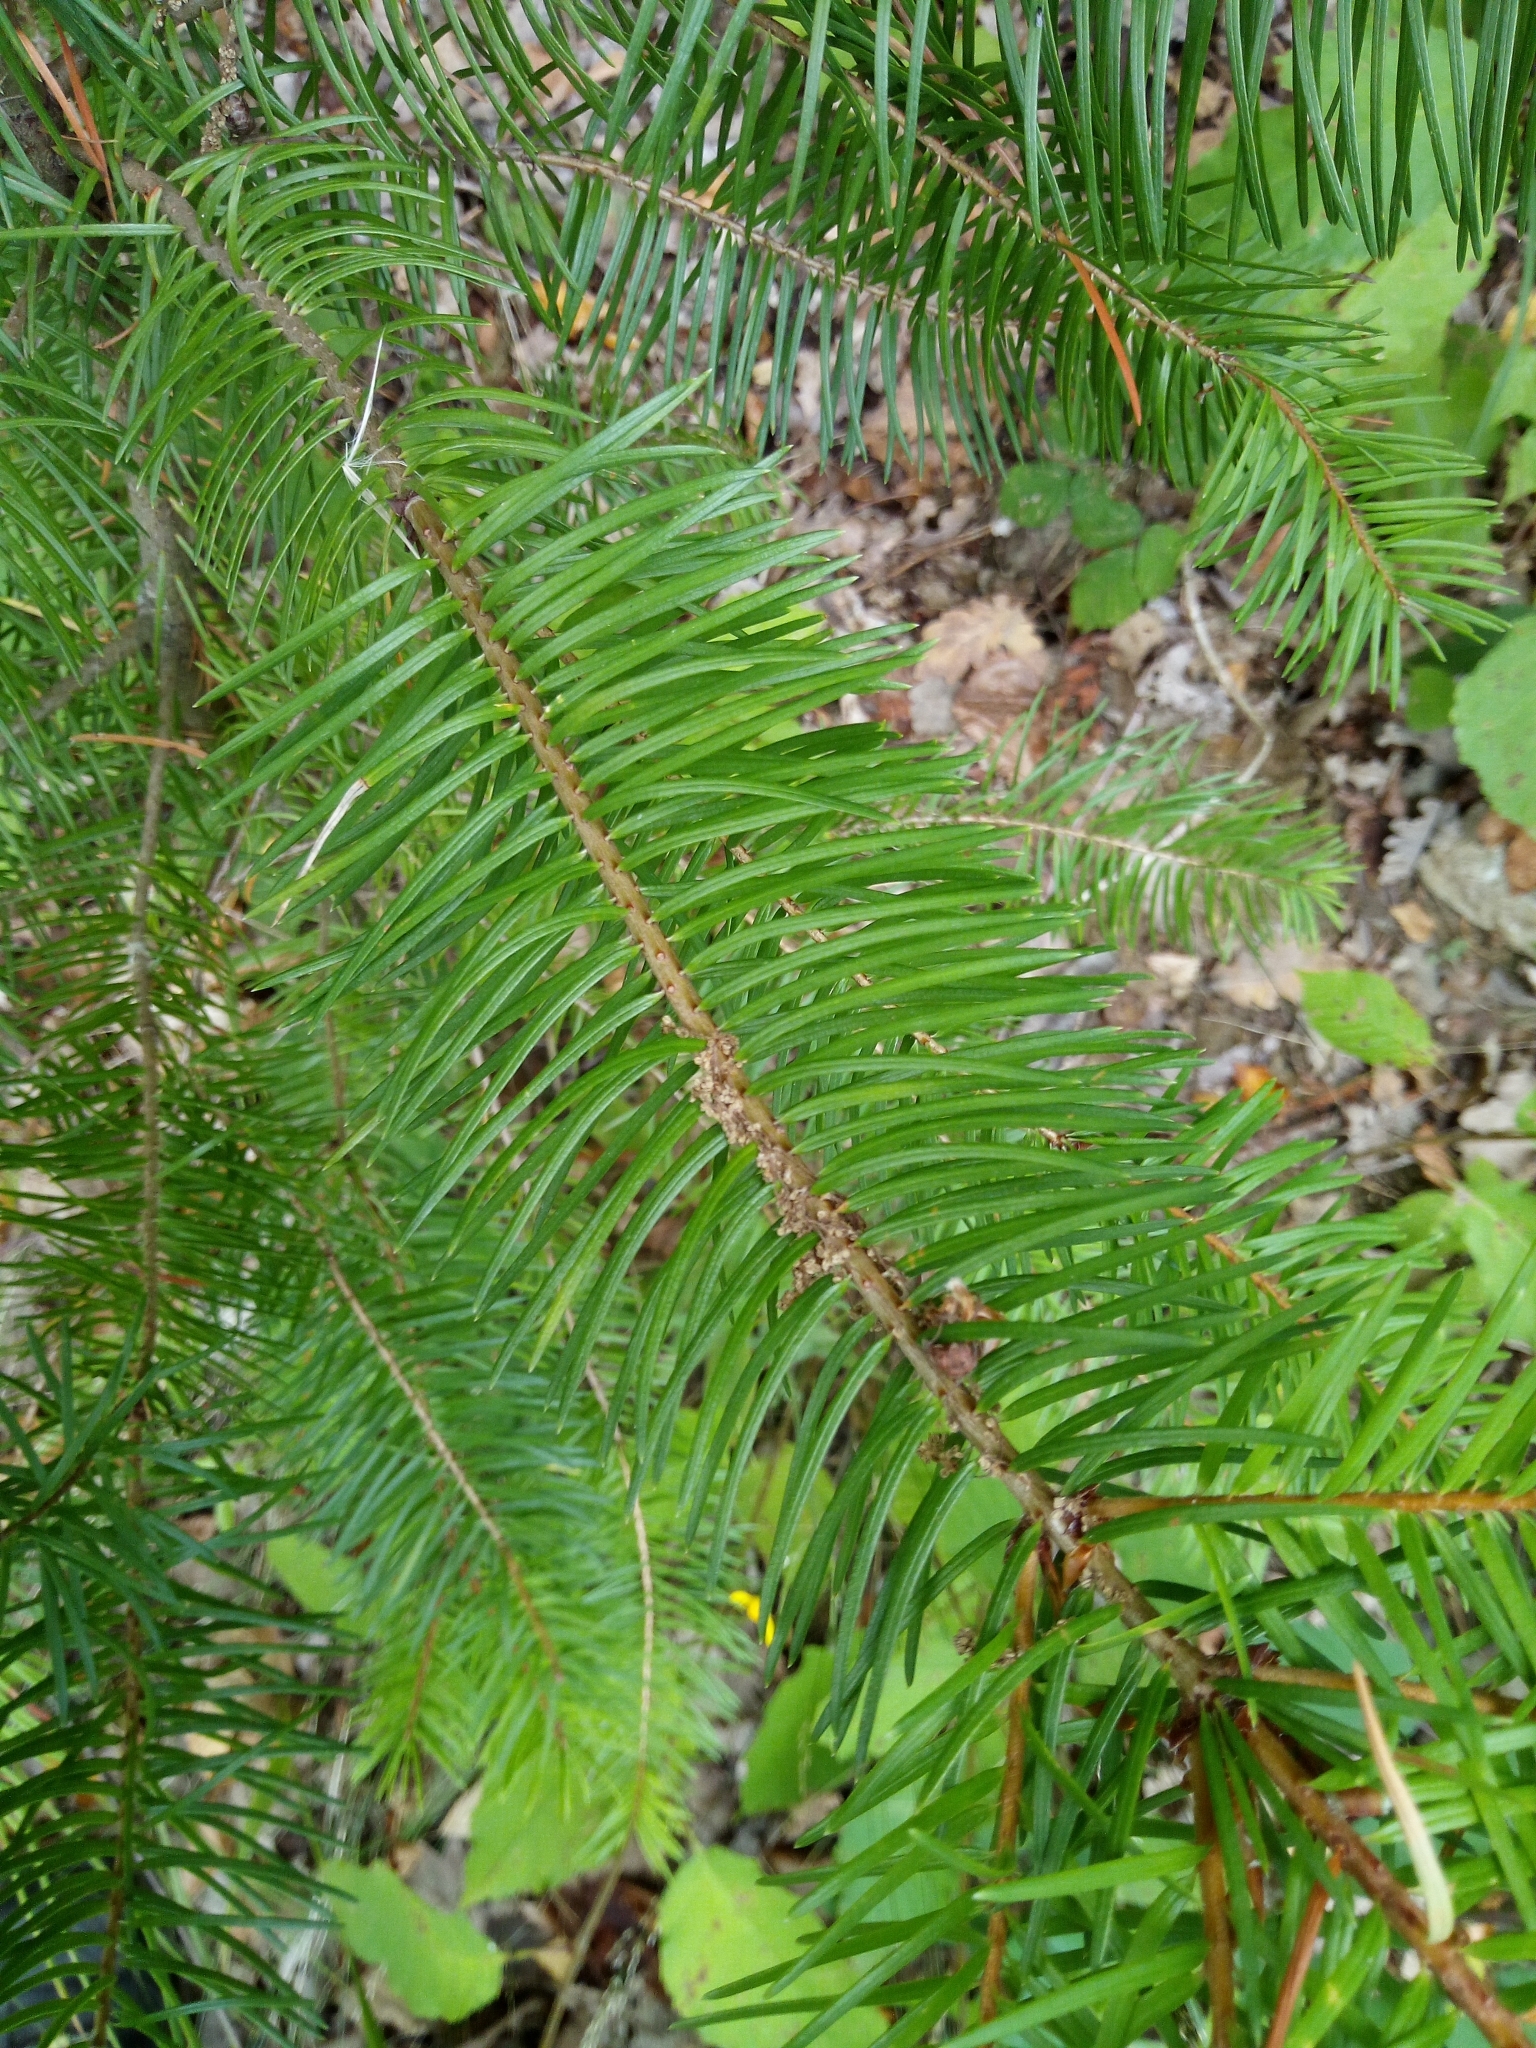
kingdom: Plantae
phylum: Tracheophyta
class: Pinopsida
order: Pinales
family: Pinaceae
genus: Pseudotsuga
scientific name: Pseudotsuga menziesii
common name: Douglas fir
